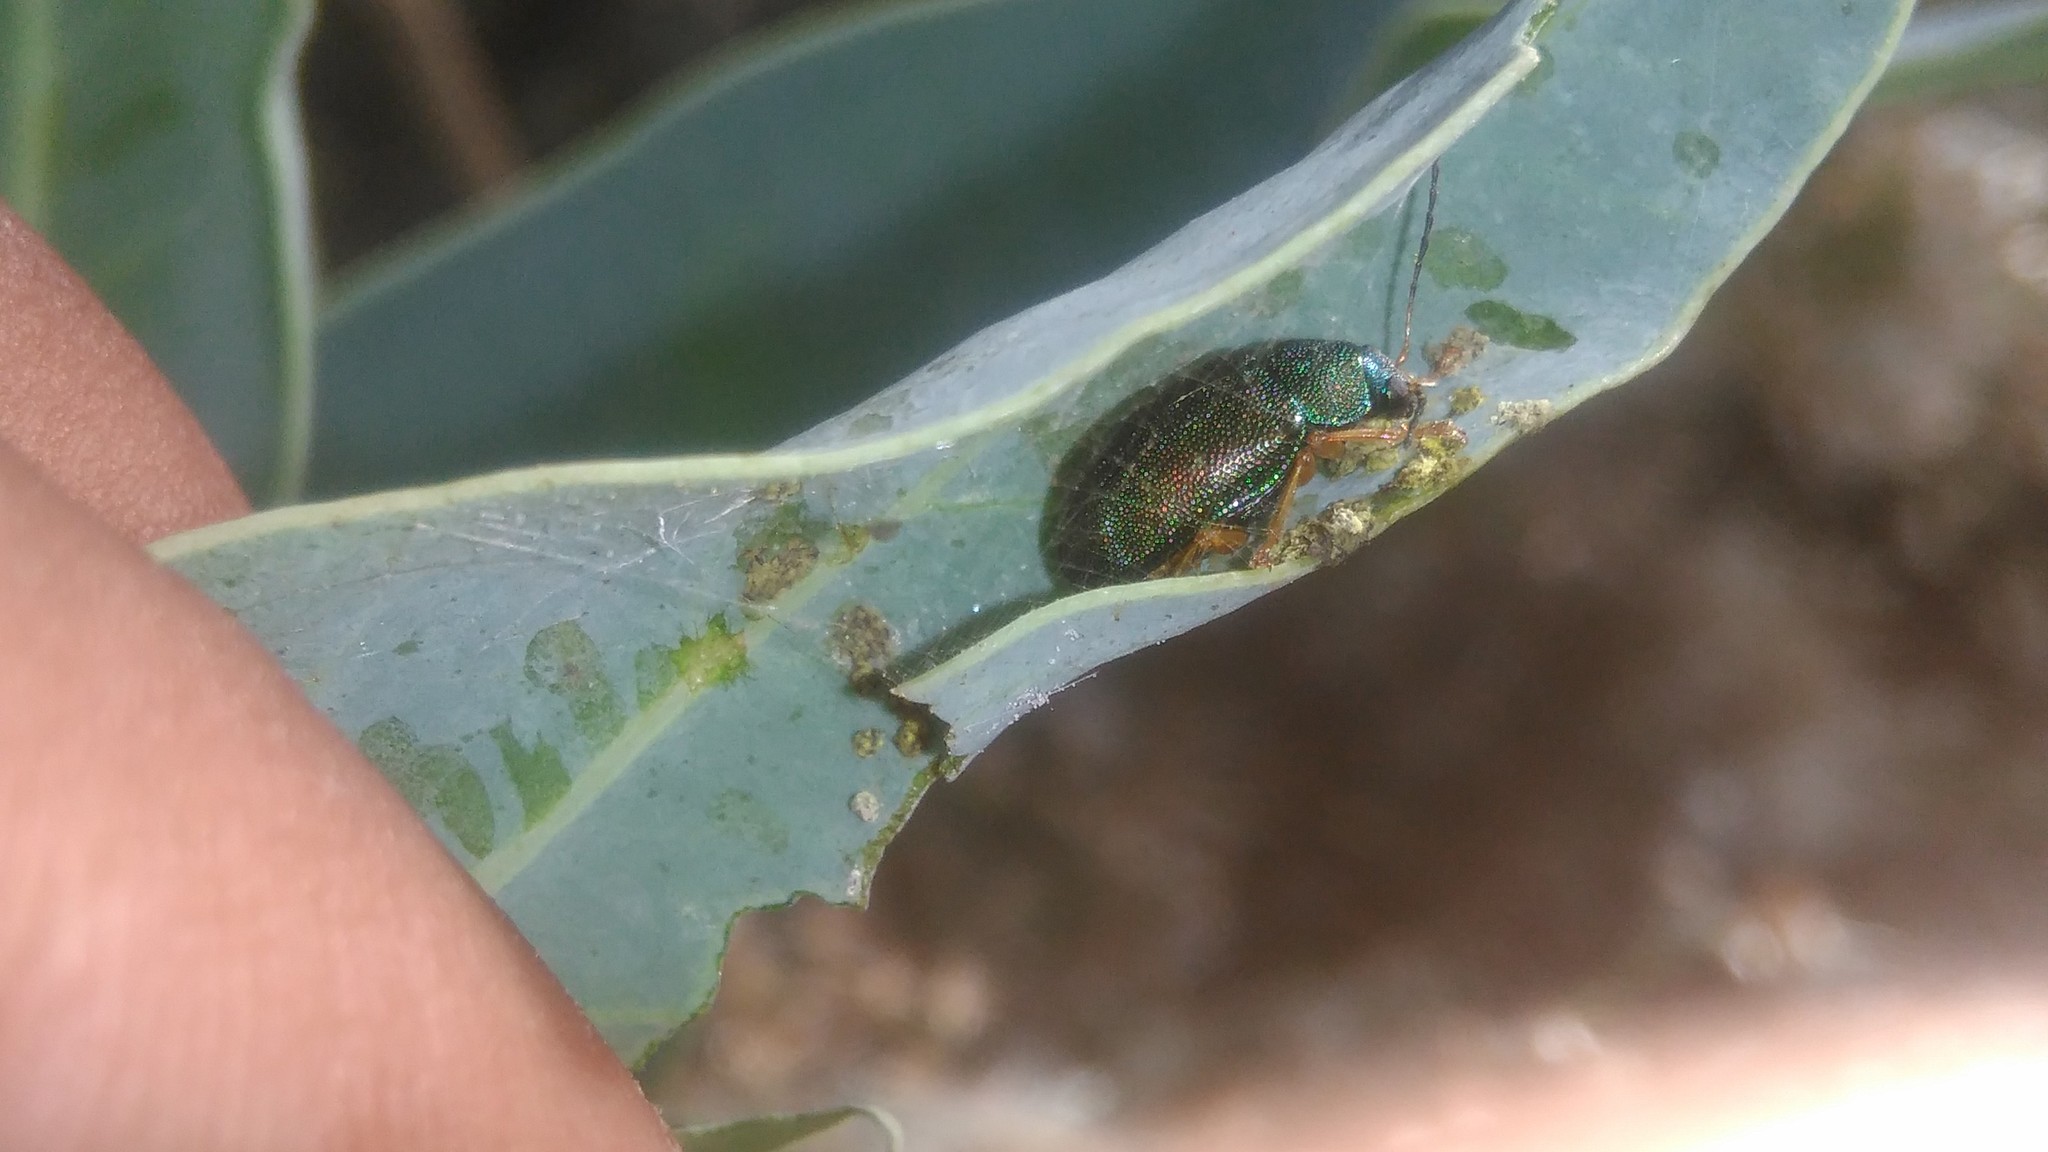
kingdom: Animalia
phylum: Arthropoda
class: Insecta
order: Coleoptera
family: Chrysomelidae
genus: Colaspis
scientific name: Colaspis
